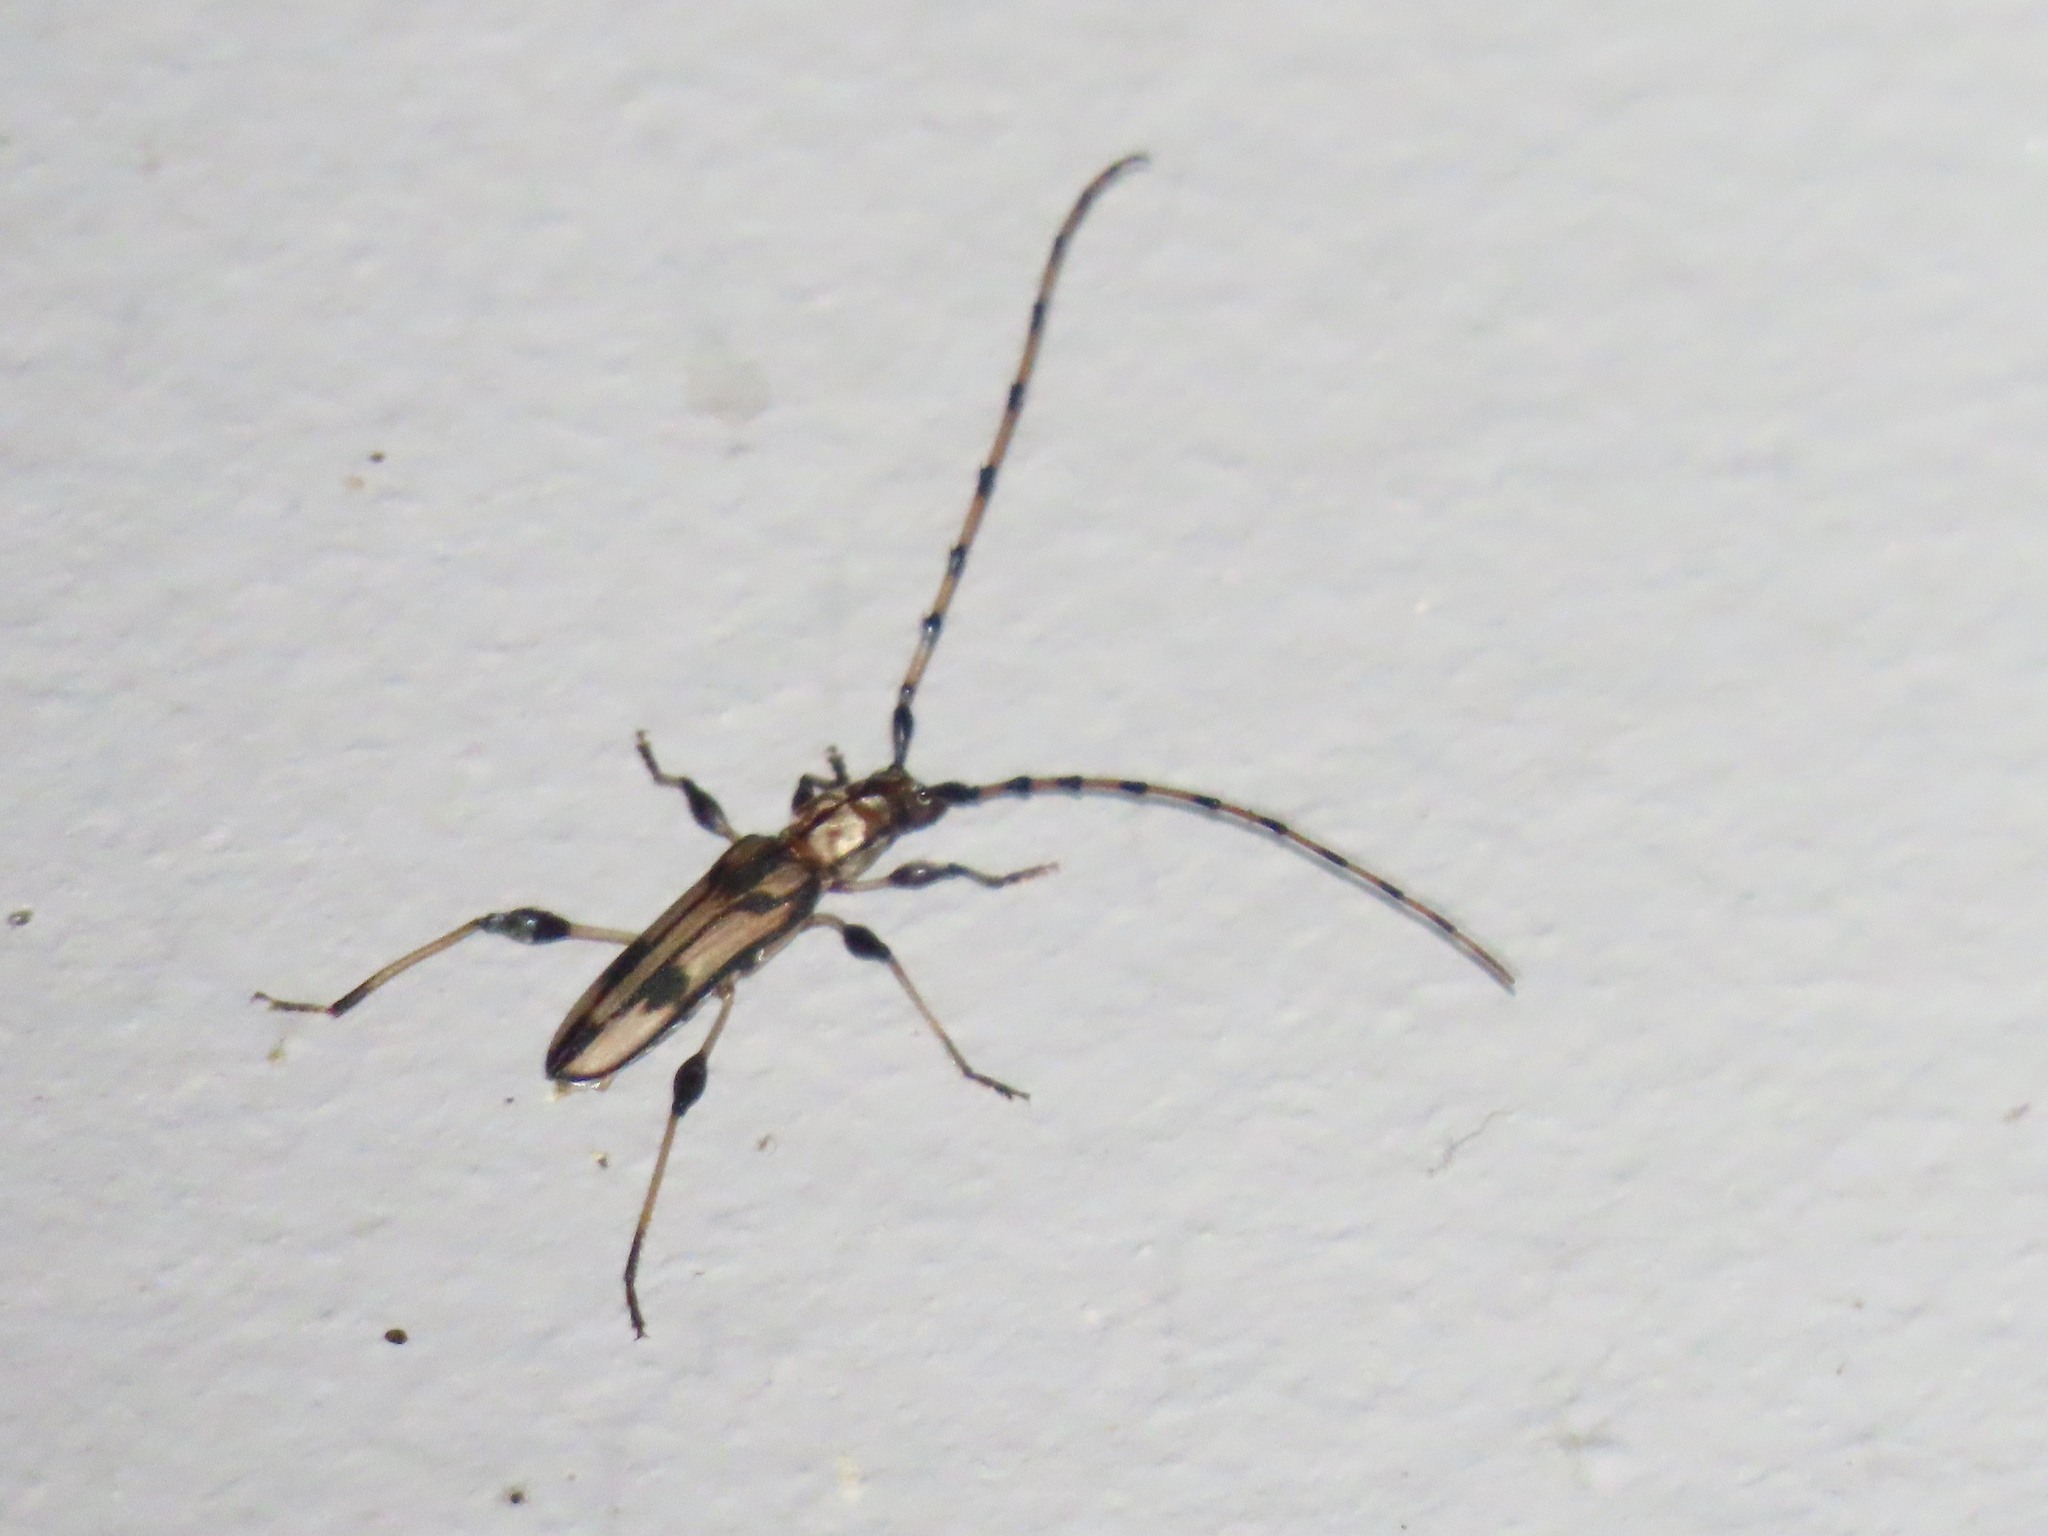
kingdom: Animalia
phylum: Arthropoda
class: Insecta
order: Coleoptera
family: Cerambycidae
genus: Cordylomera
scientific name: Cordylomera schoenherrii
